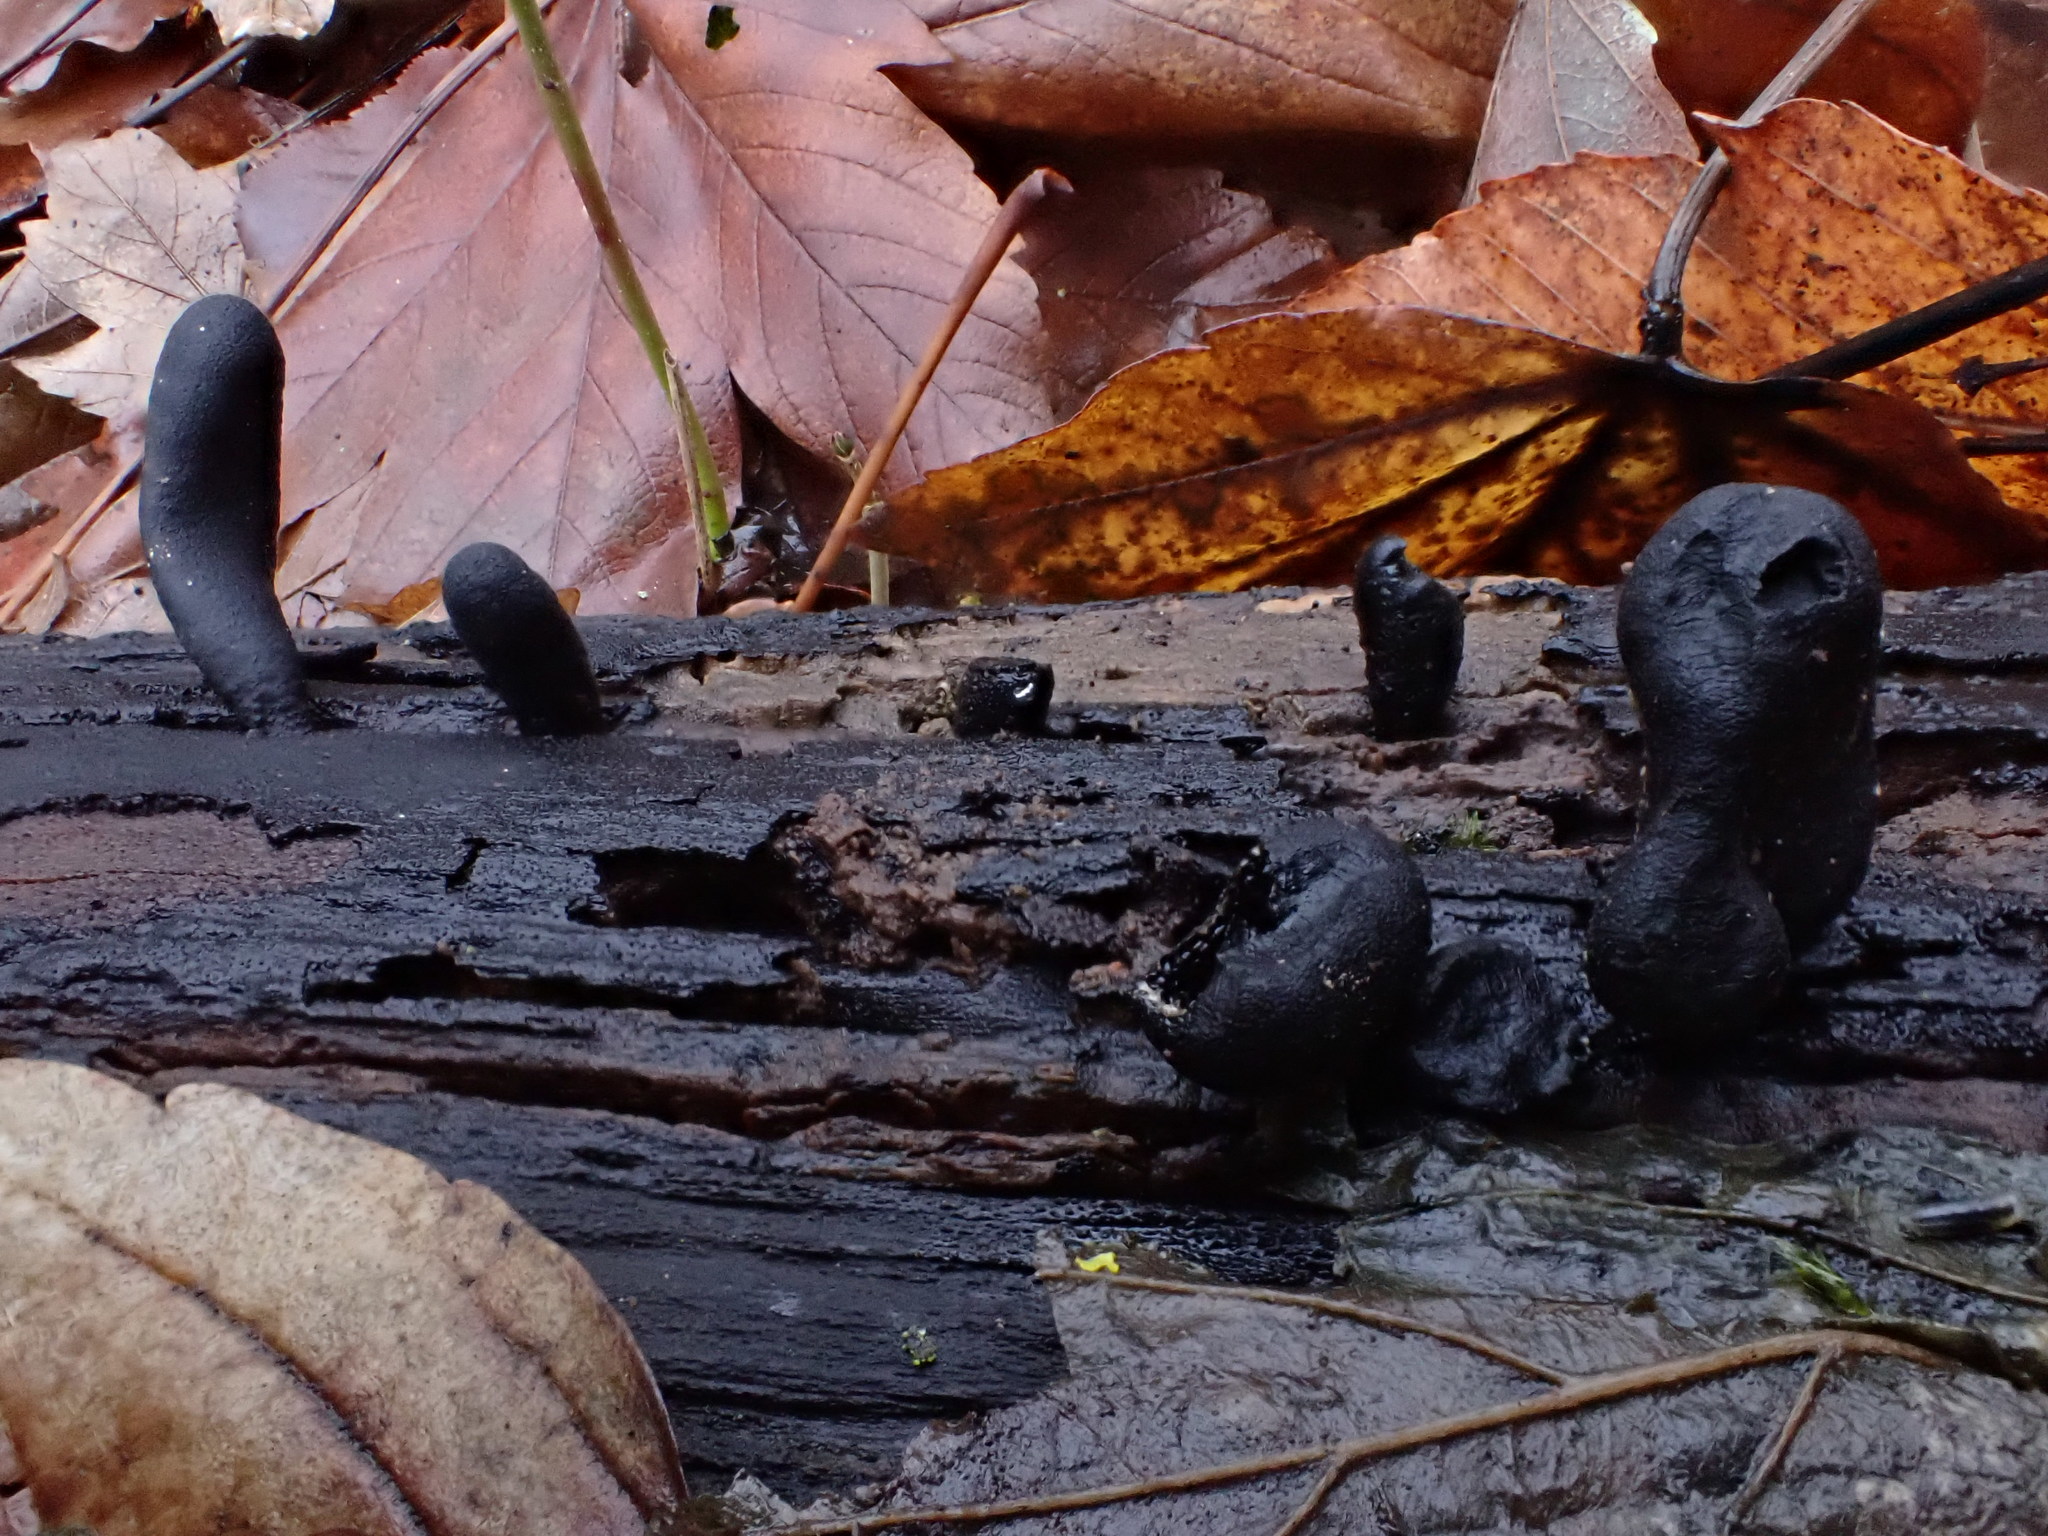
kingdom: Fungi
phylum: Ascomycota
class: Sordariomycetes
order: Xylariales
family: Xylariaceae
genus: Xylaria
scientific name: Xylaria polymorpha
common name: Dead man's fingers
